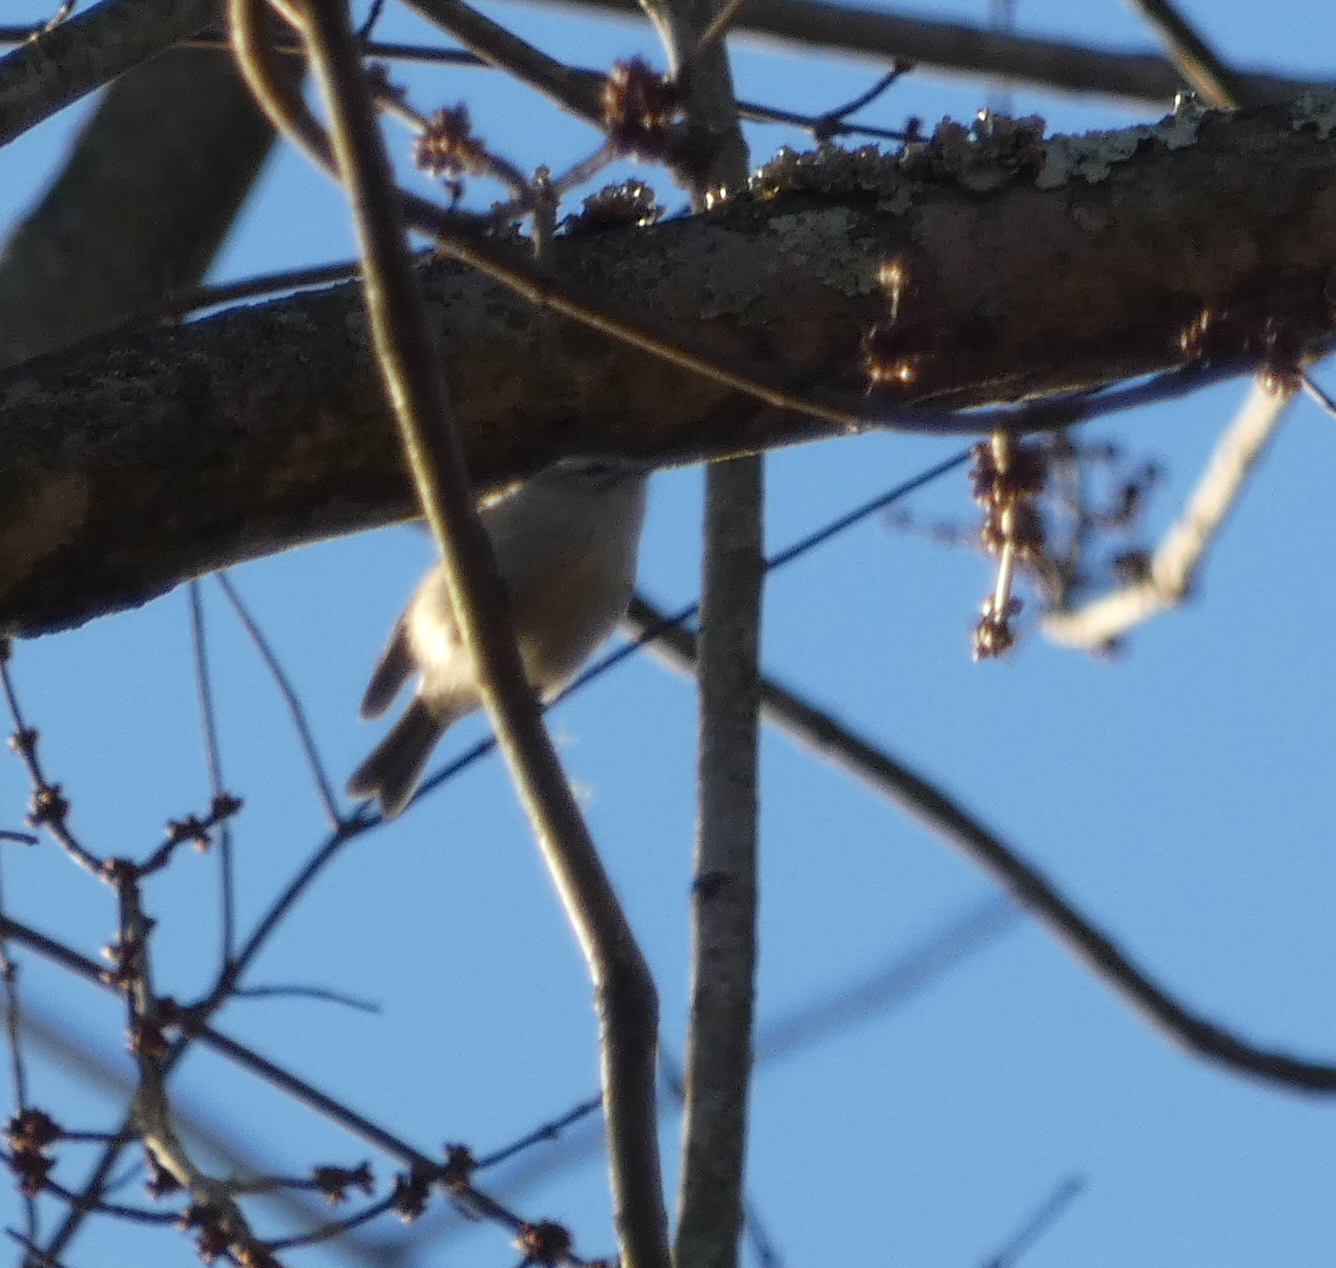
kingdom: Animalia
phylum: Chordata
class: Aves
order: Passeriformes
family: Regulidae
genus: Regulus
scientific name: Regulus satrapa
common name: Golden-crowned kinglet
